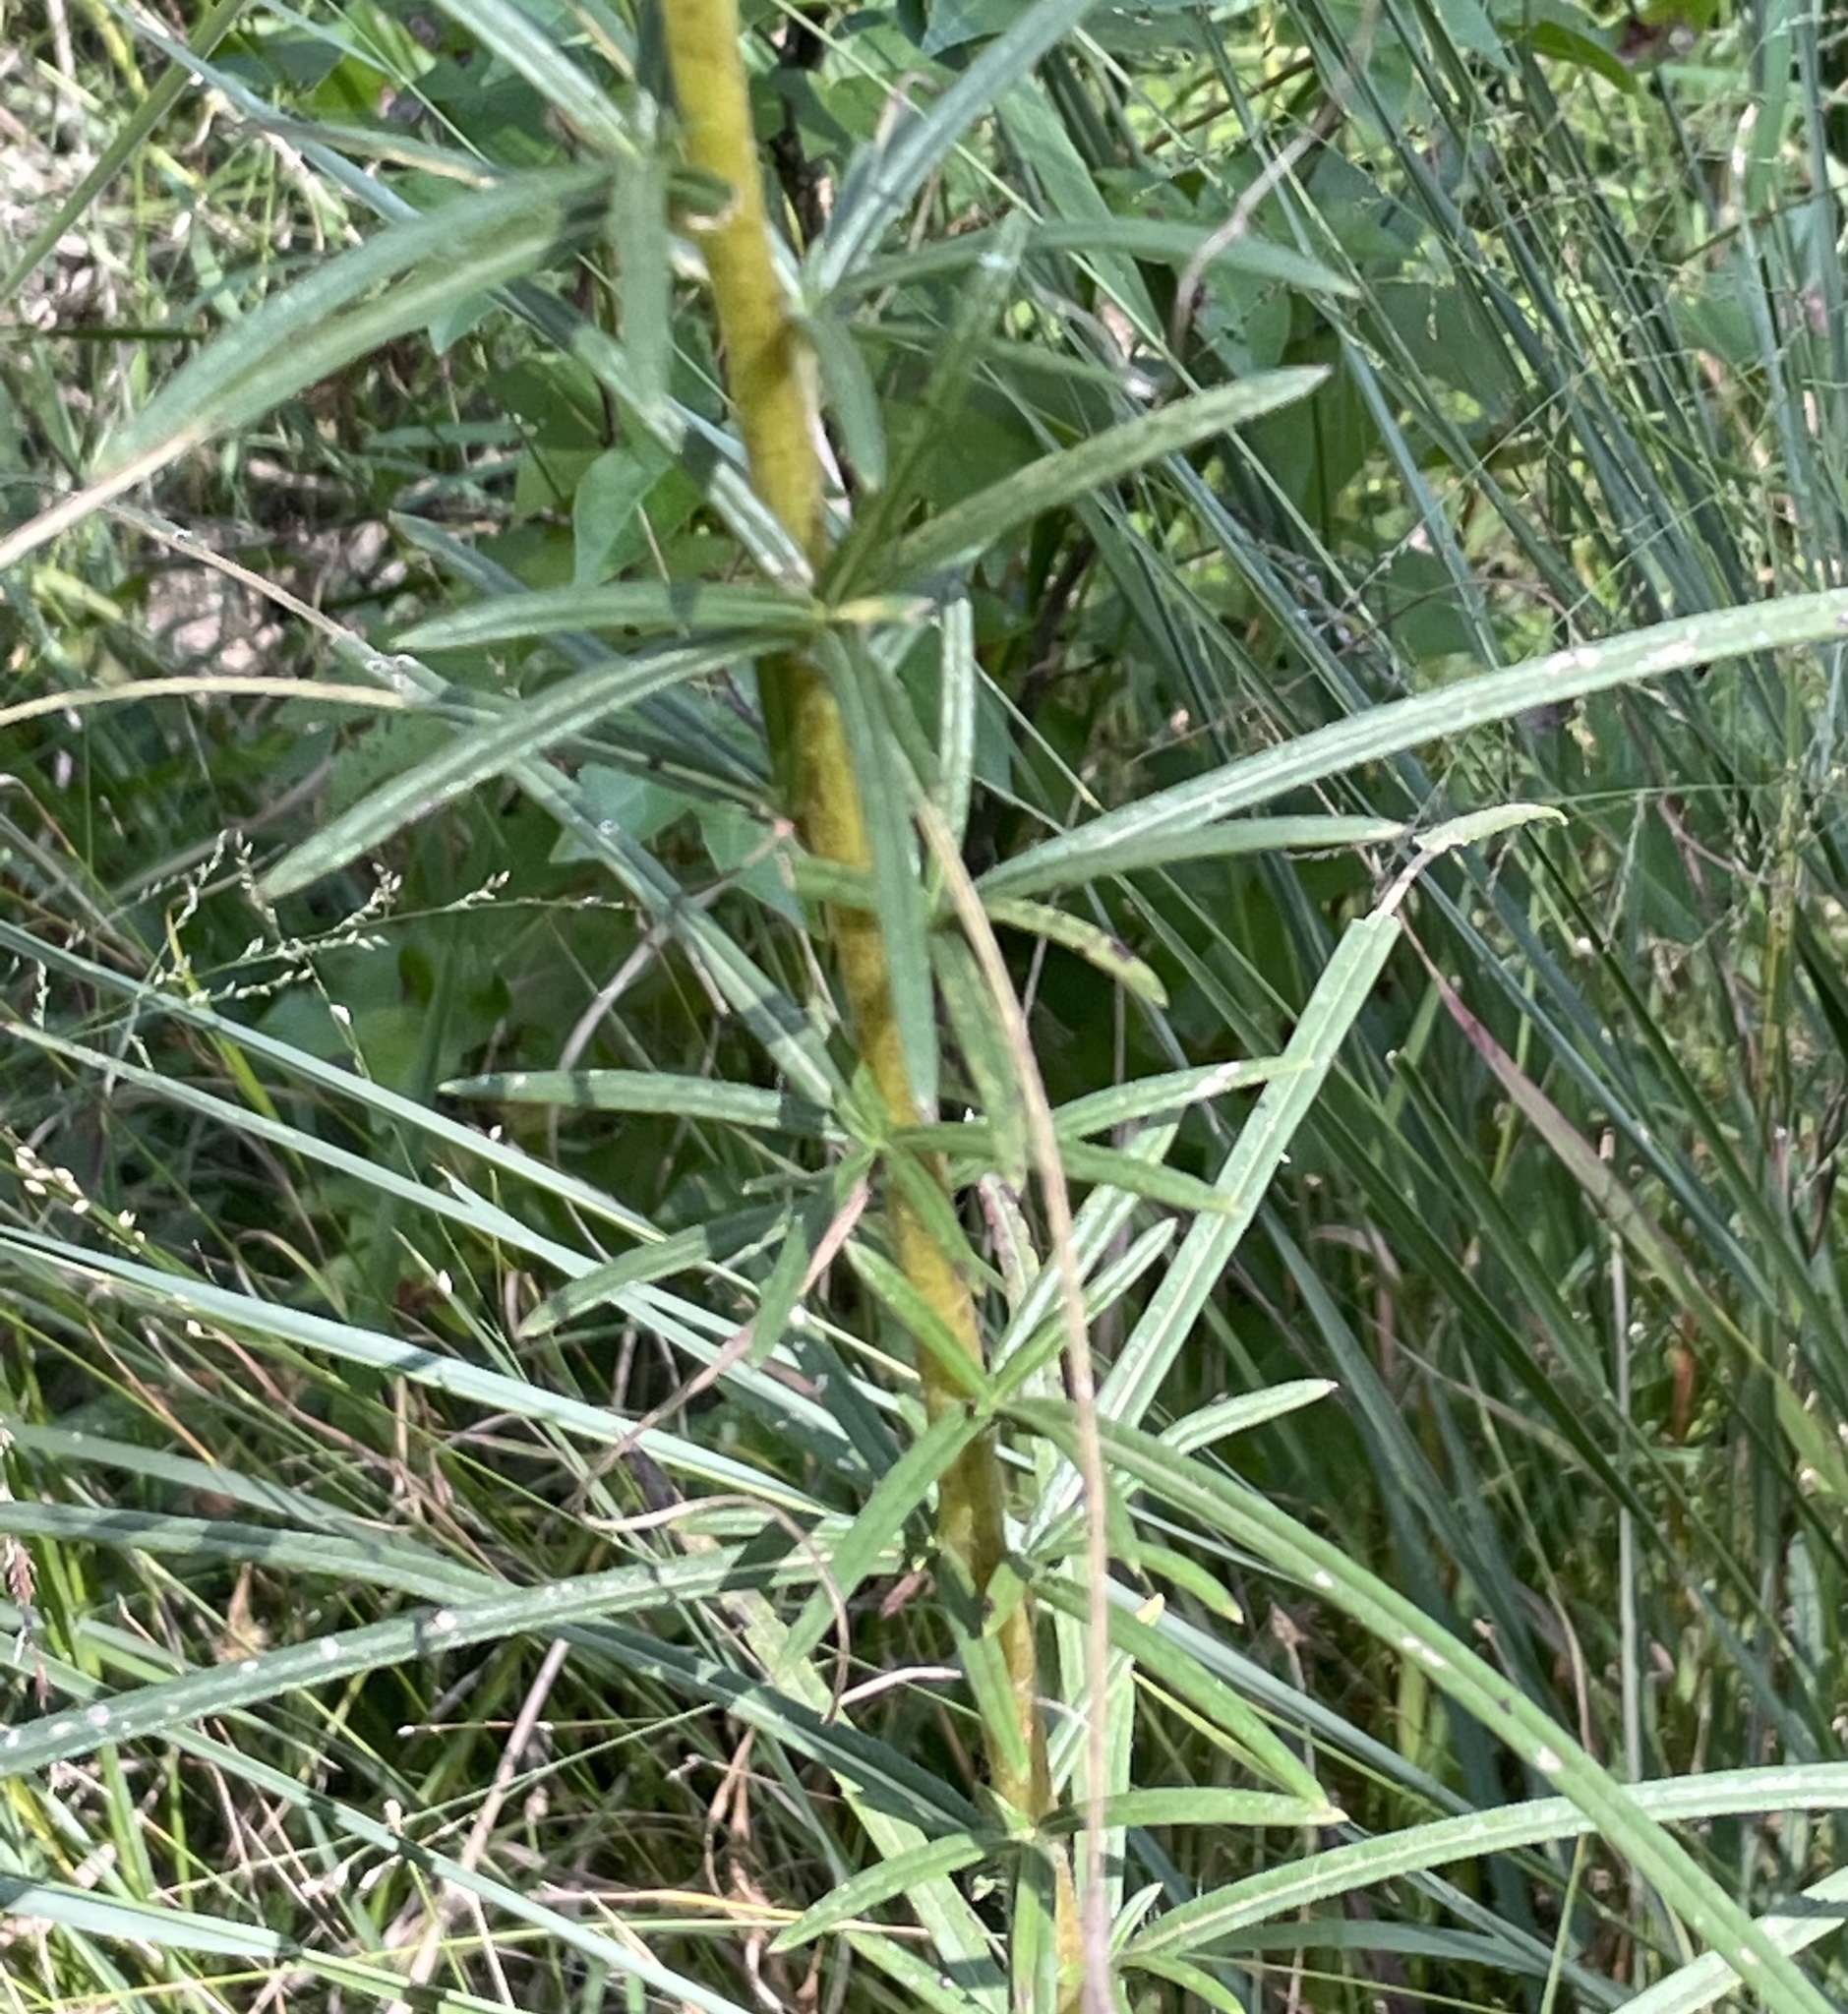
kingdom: Plantae
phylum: Tracheophyta
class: Magnoliopsida
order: Asterales
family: Asteraceae
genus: Helianthus
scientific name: Helianthus angustifolius
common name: Swamp sunflower
